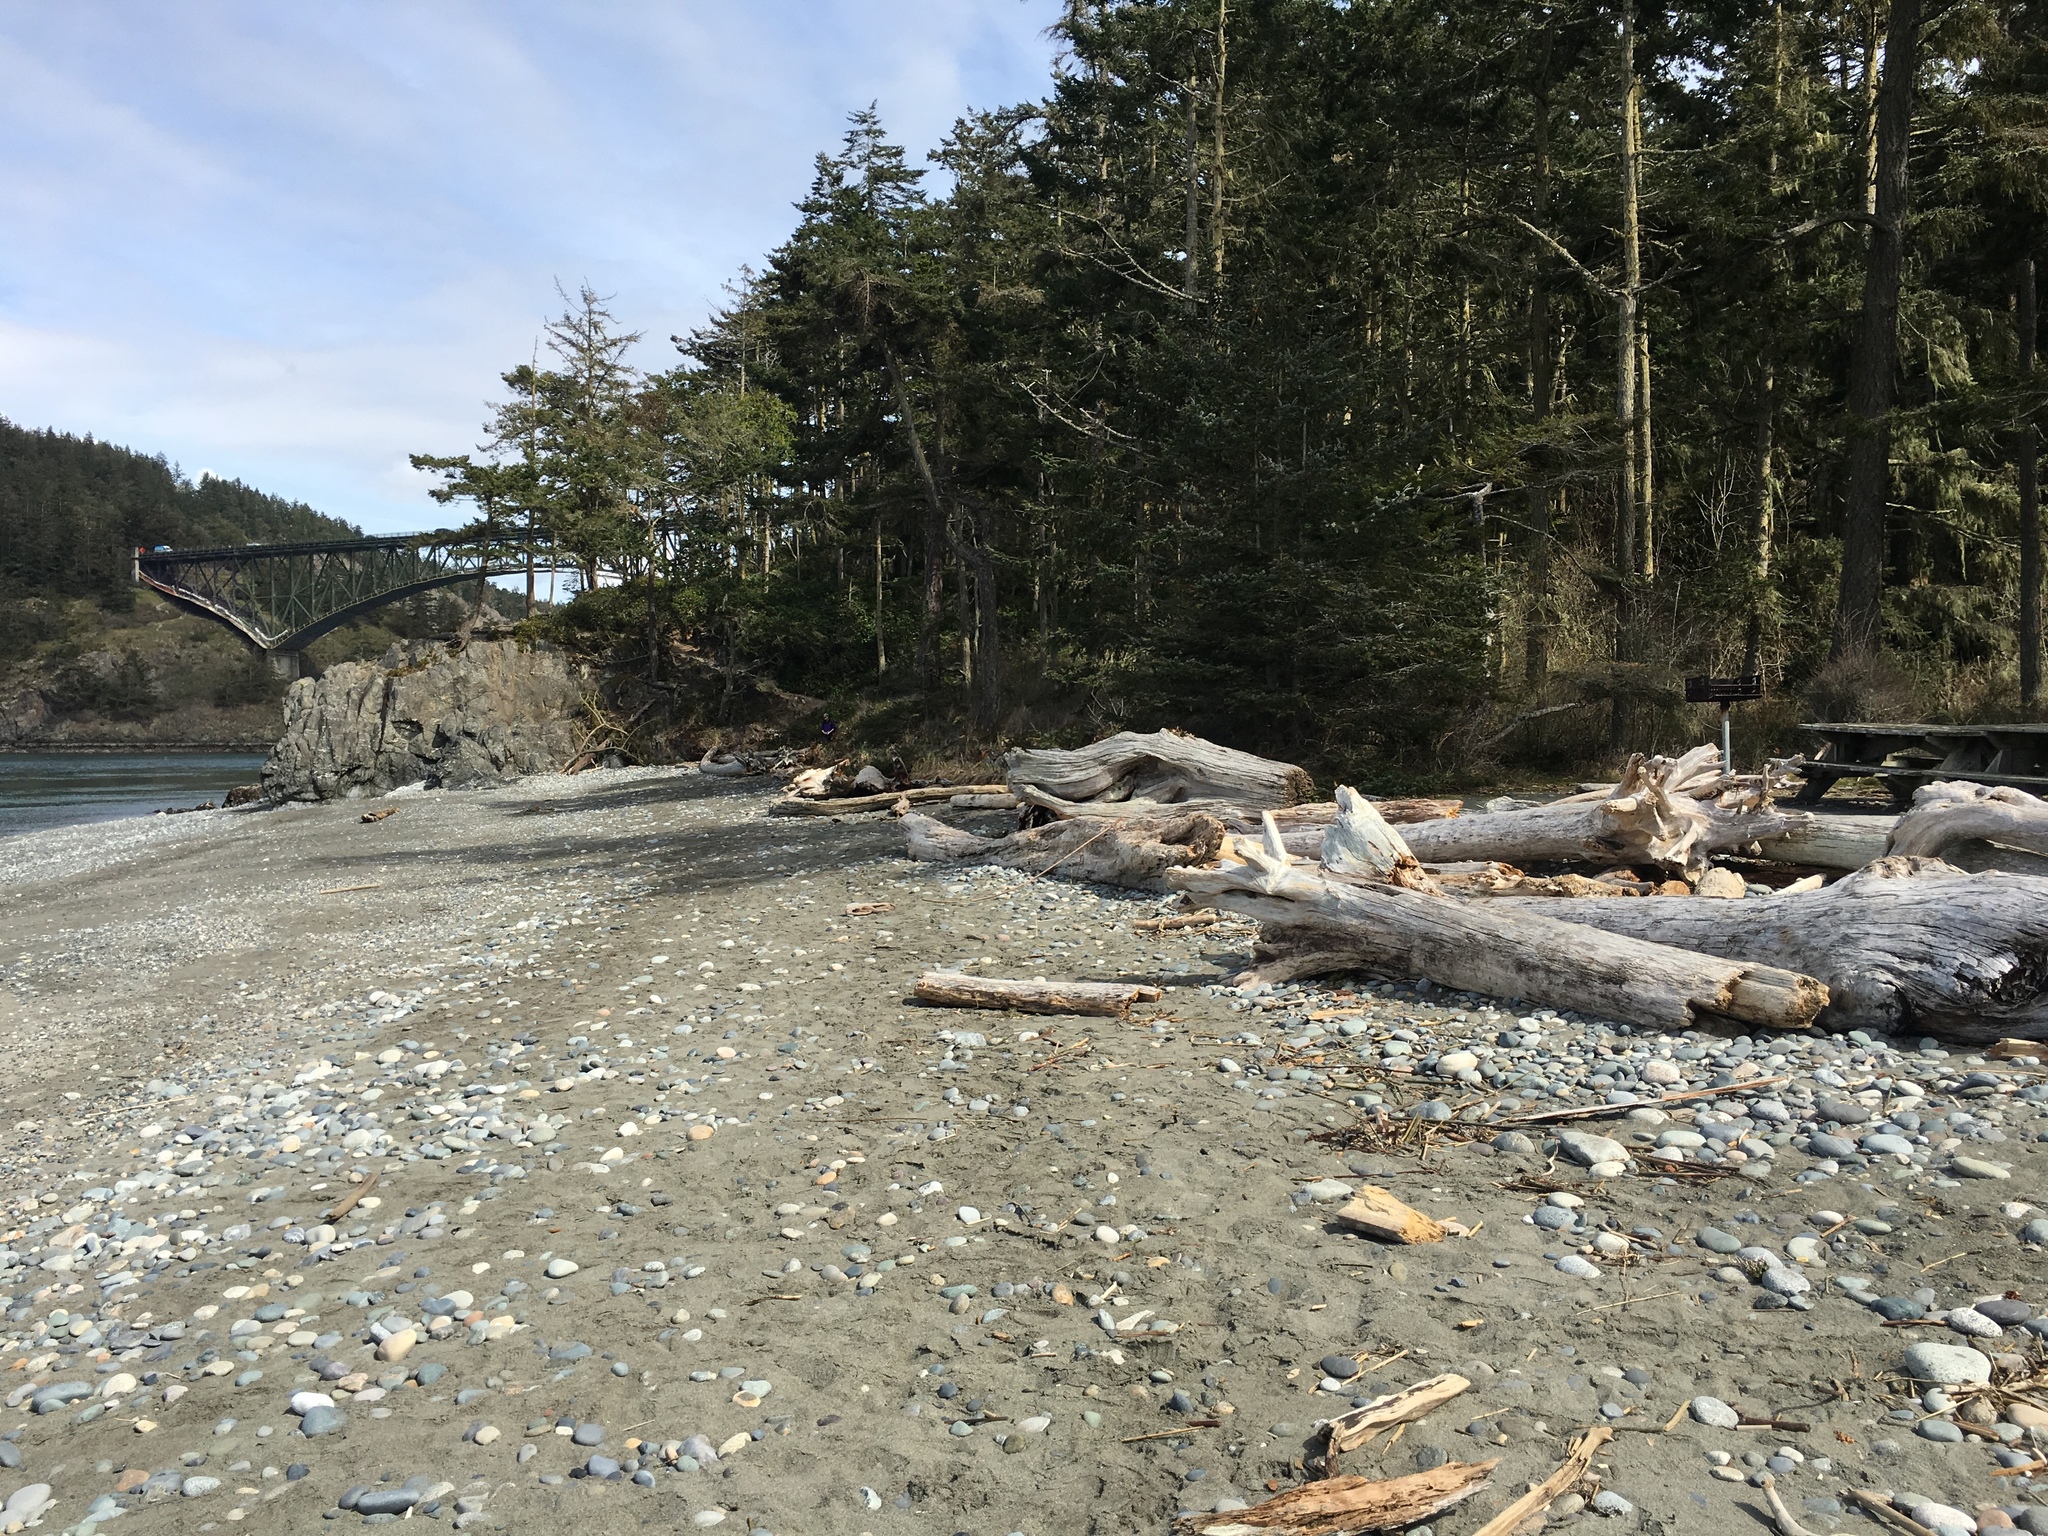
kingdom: Animalia
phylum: Arthropoda
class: Insecta
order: Coleoptera
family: Curculionidae
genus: Elassoptes
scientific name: Elassoptes marinus
